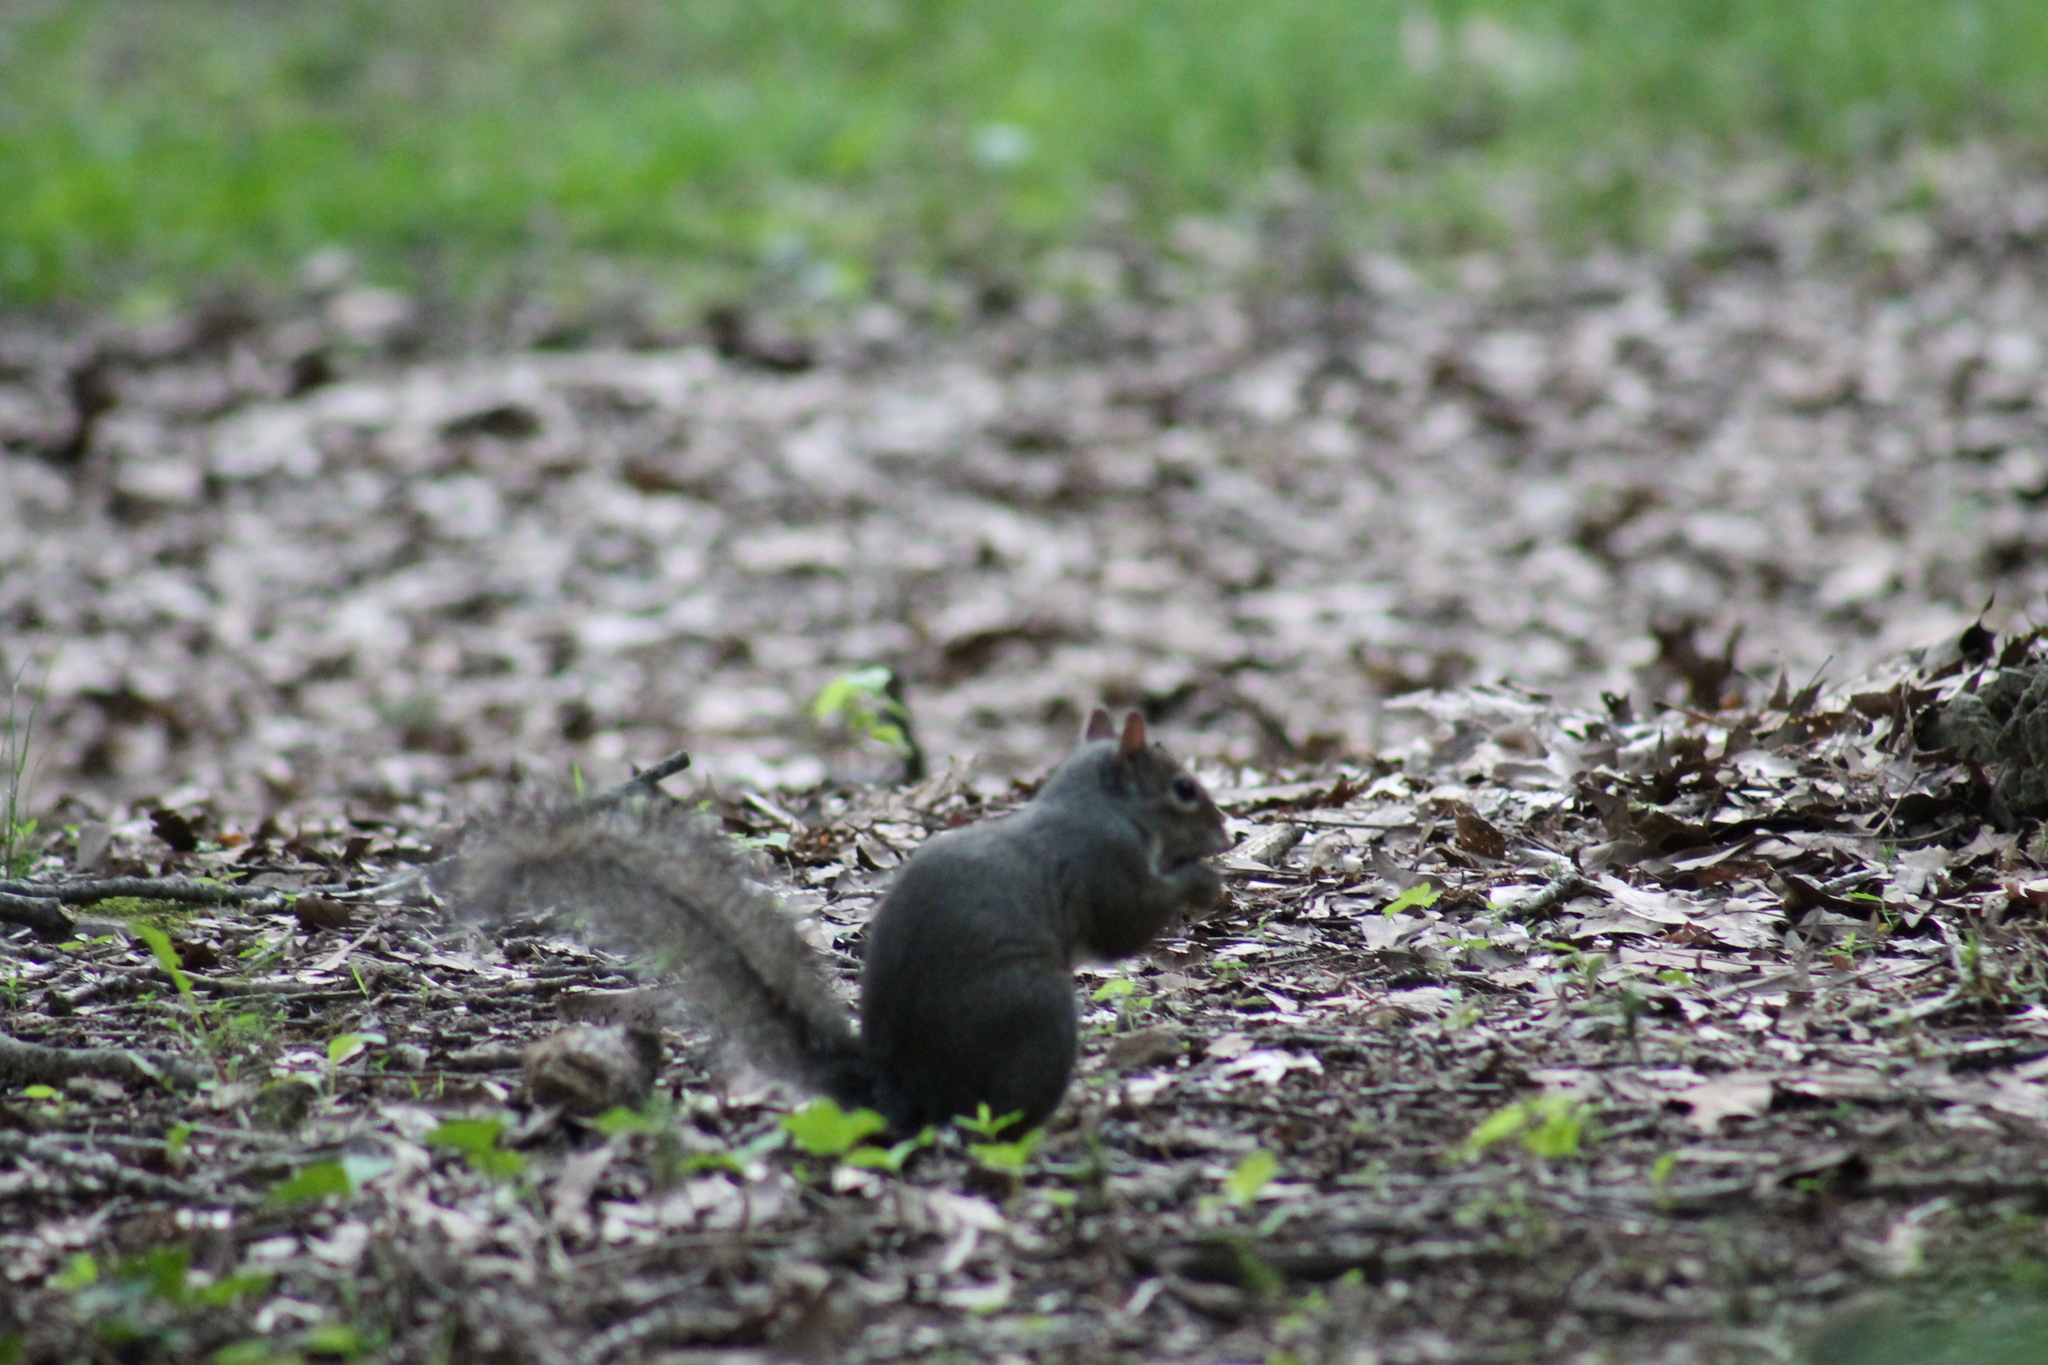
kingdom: Animalia
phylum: Chordata
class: Mammalia
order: Rodentia
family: Sciuridae
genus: Sciurus
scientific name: Sciurus carolinensis
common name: Eastern gray squirrel
